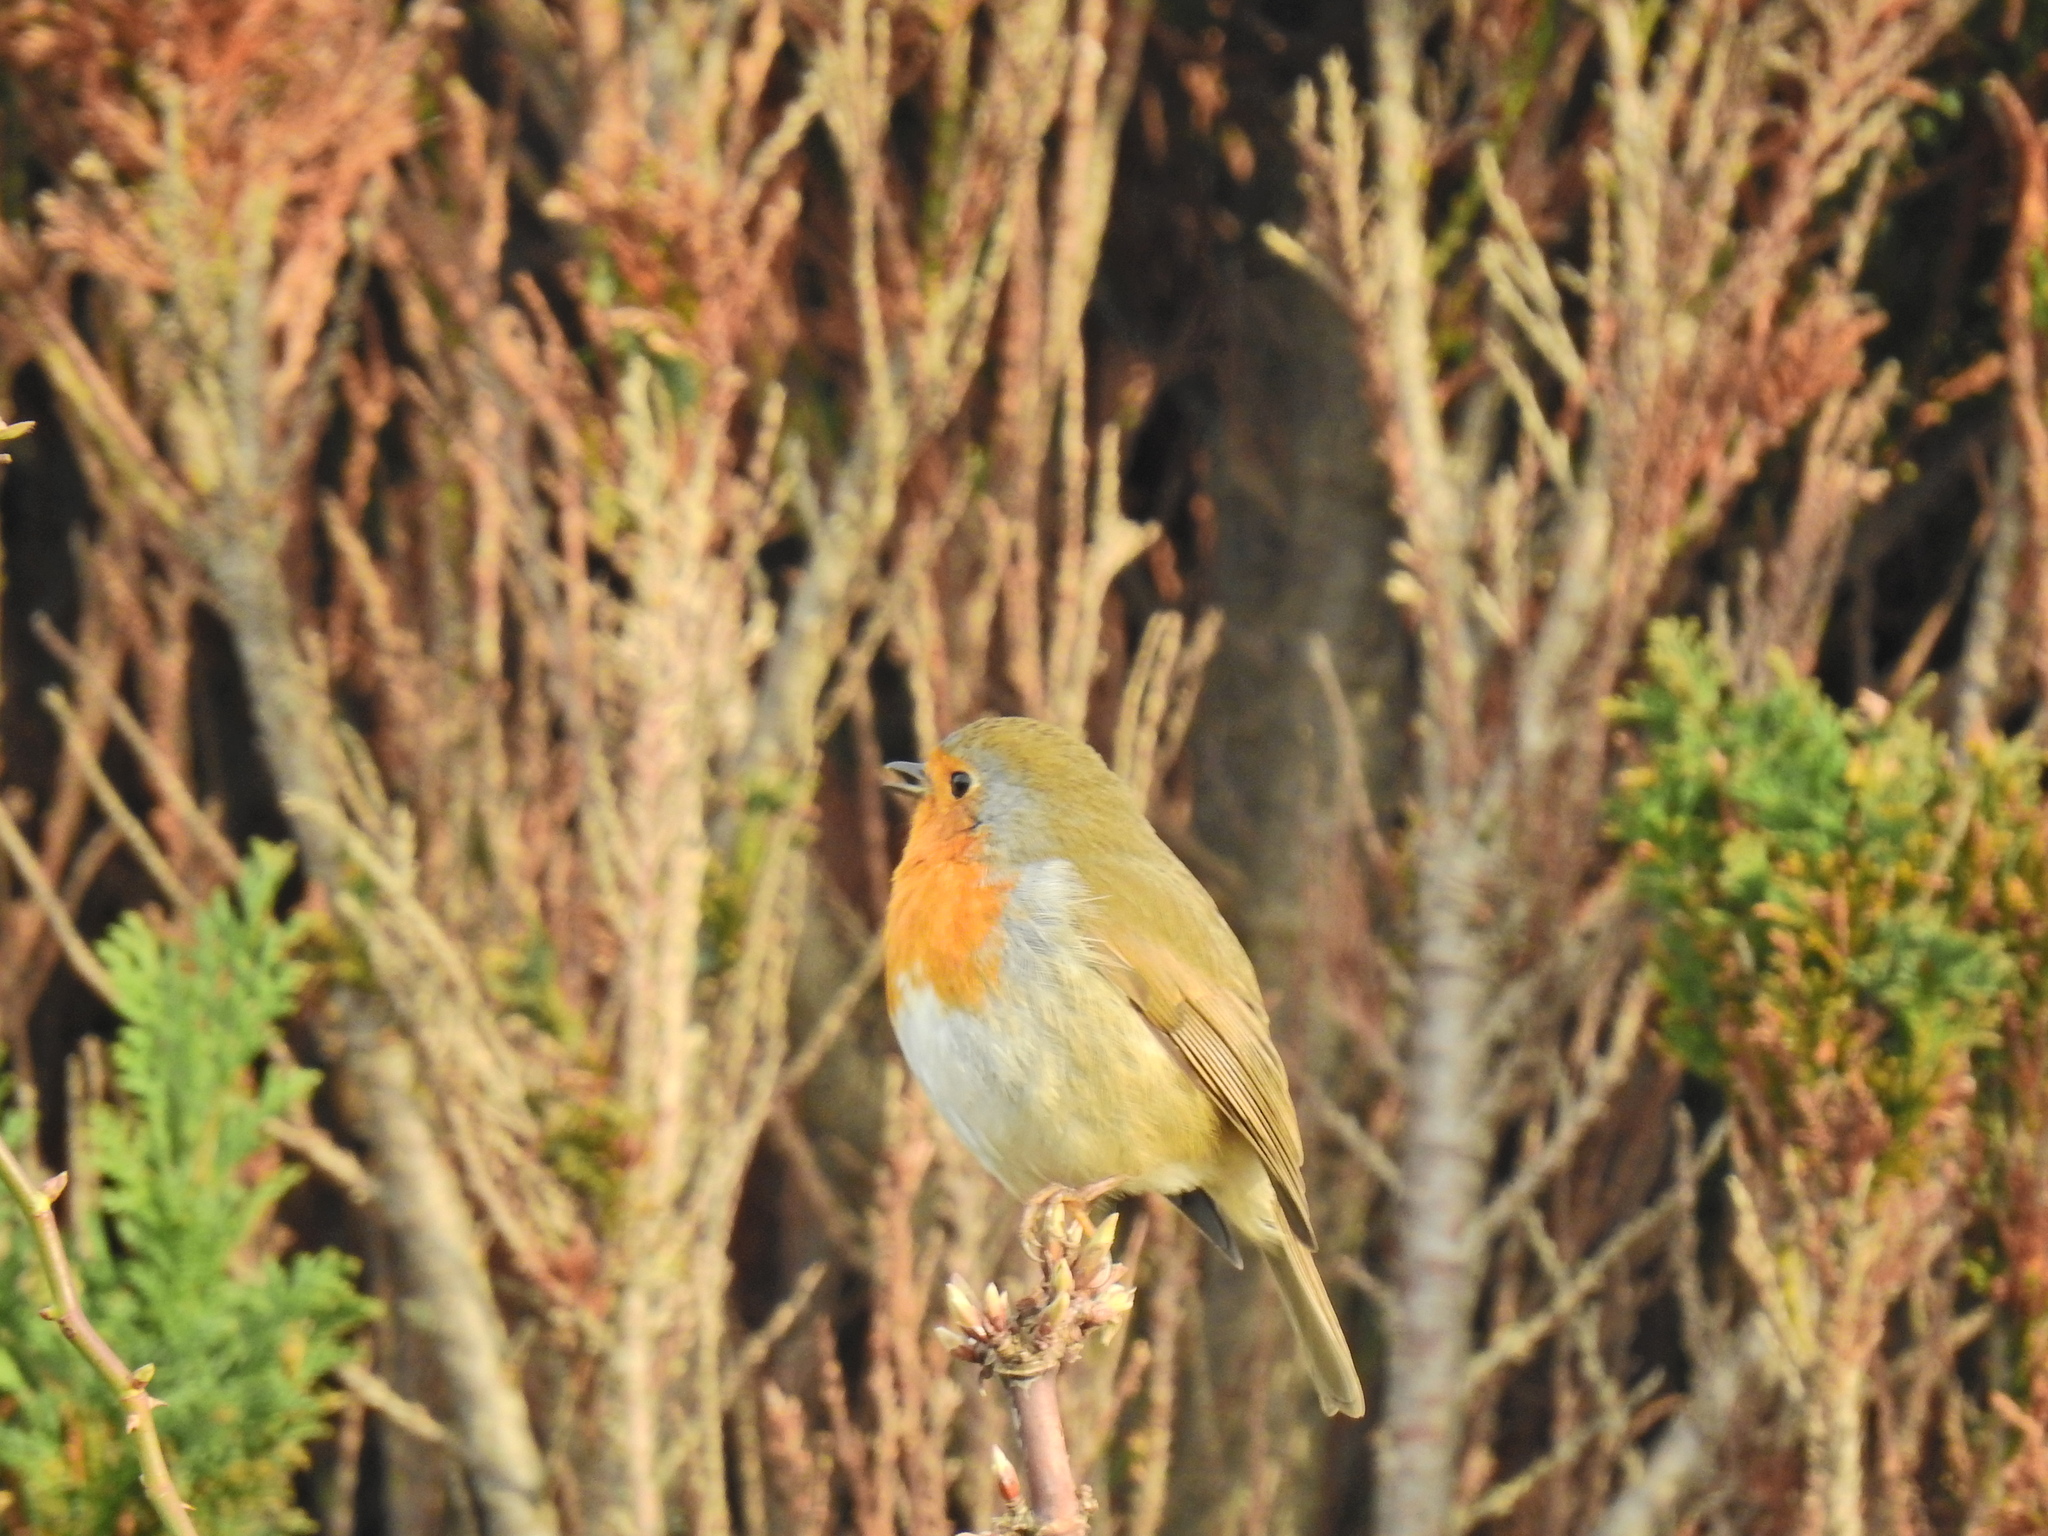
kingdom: Animalia
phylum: Chordata
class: Aves
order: Passeriformes
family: Muscicapidae
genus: Erithacus
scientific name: Erithacus rubecula
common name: European robin
